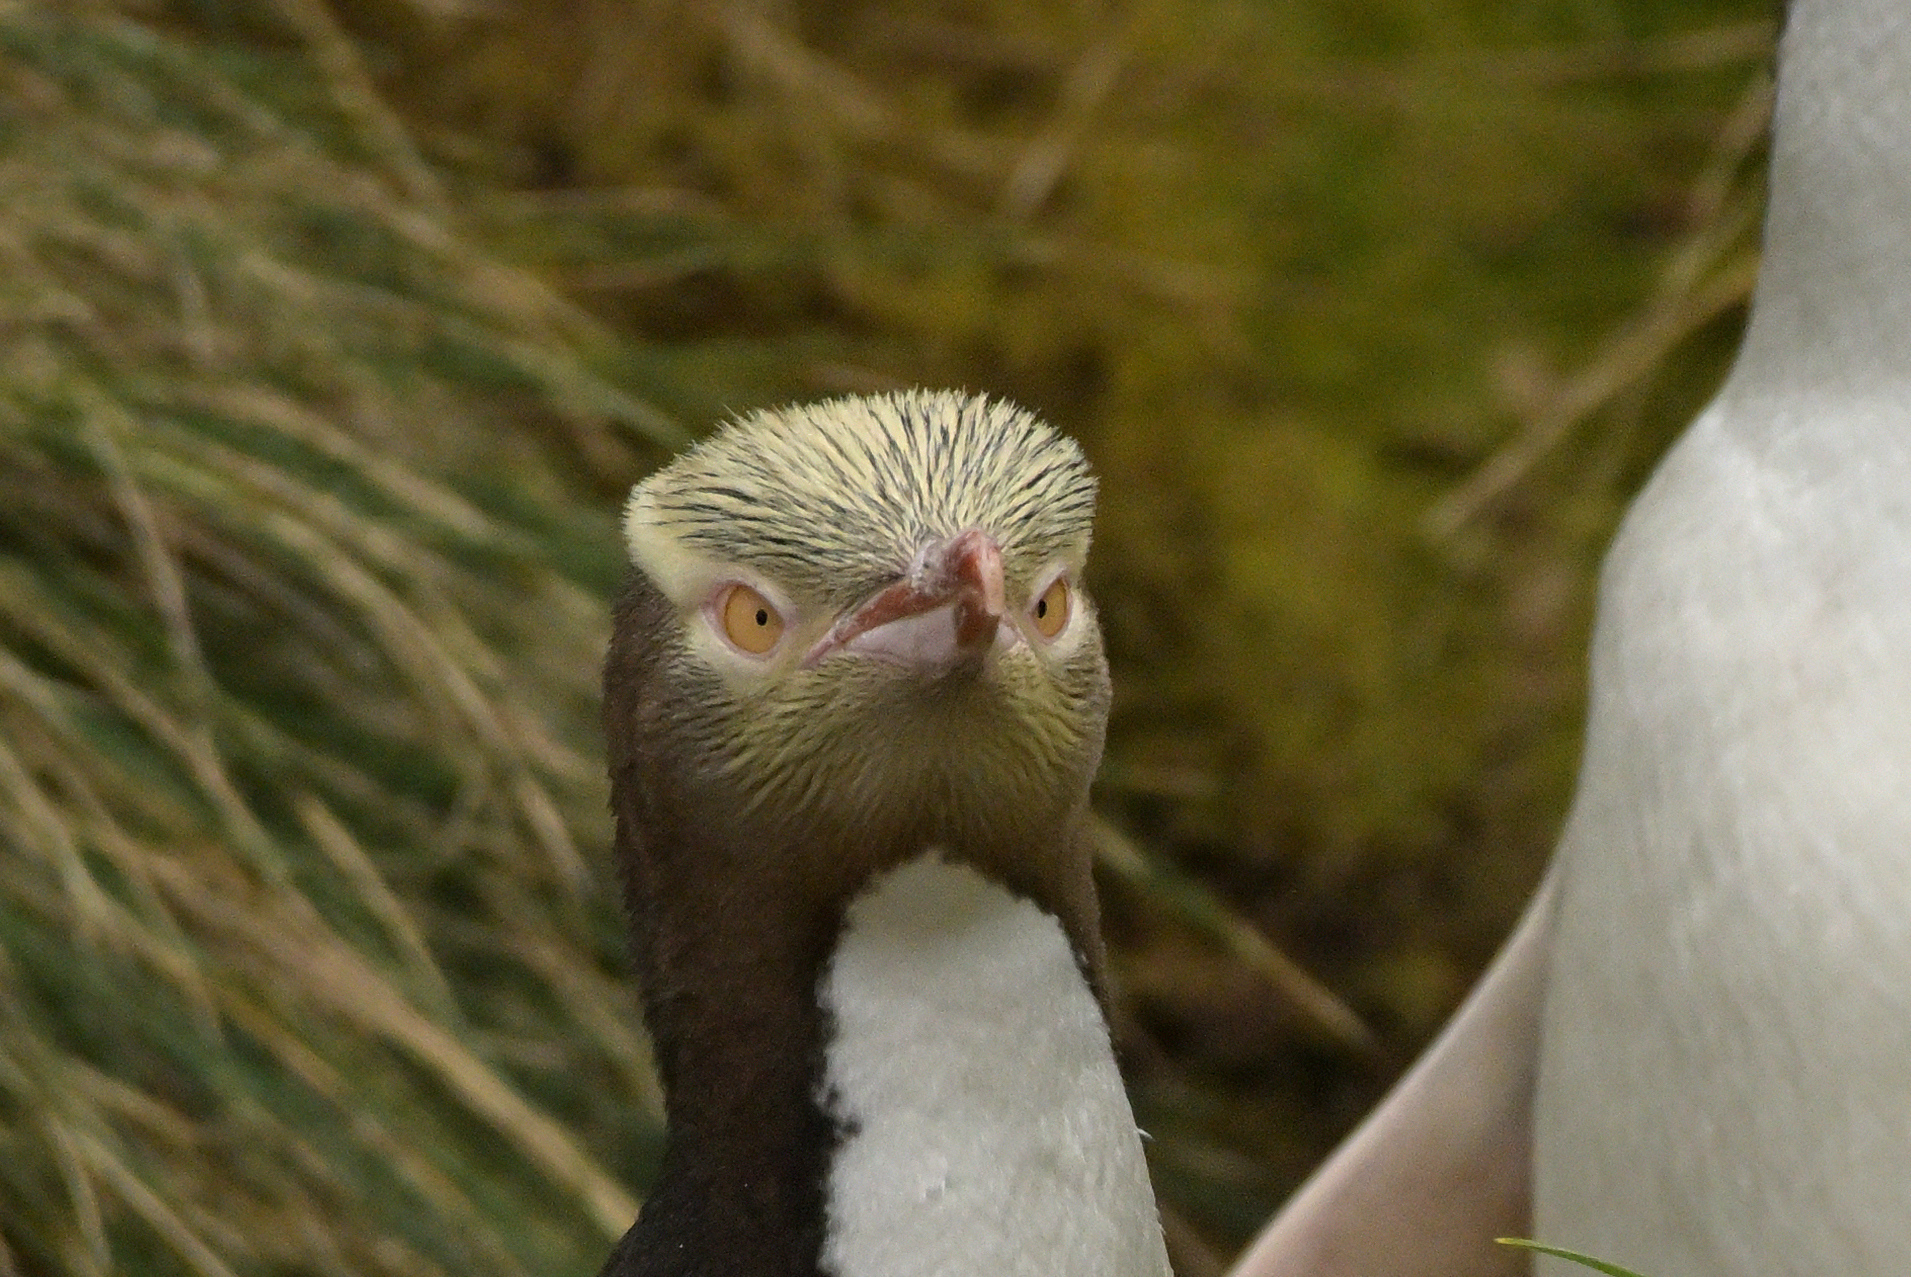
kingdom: Animalia
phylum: Chordata
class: Aves
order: Sphenisciformes
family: Spheniscidae
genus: Megadyptes
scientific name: Megadyptes antipodes
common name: Yellow-eyed penguin
